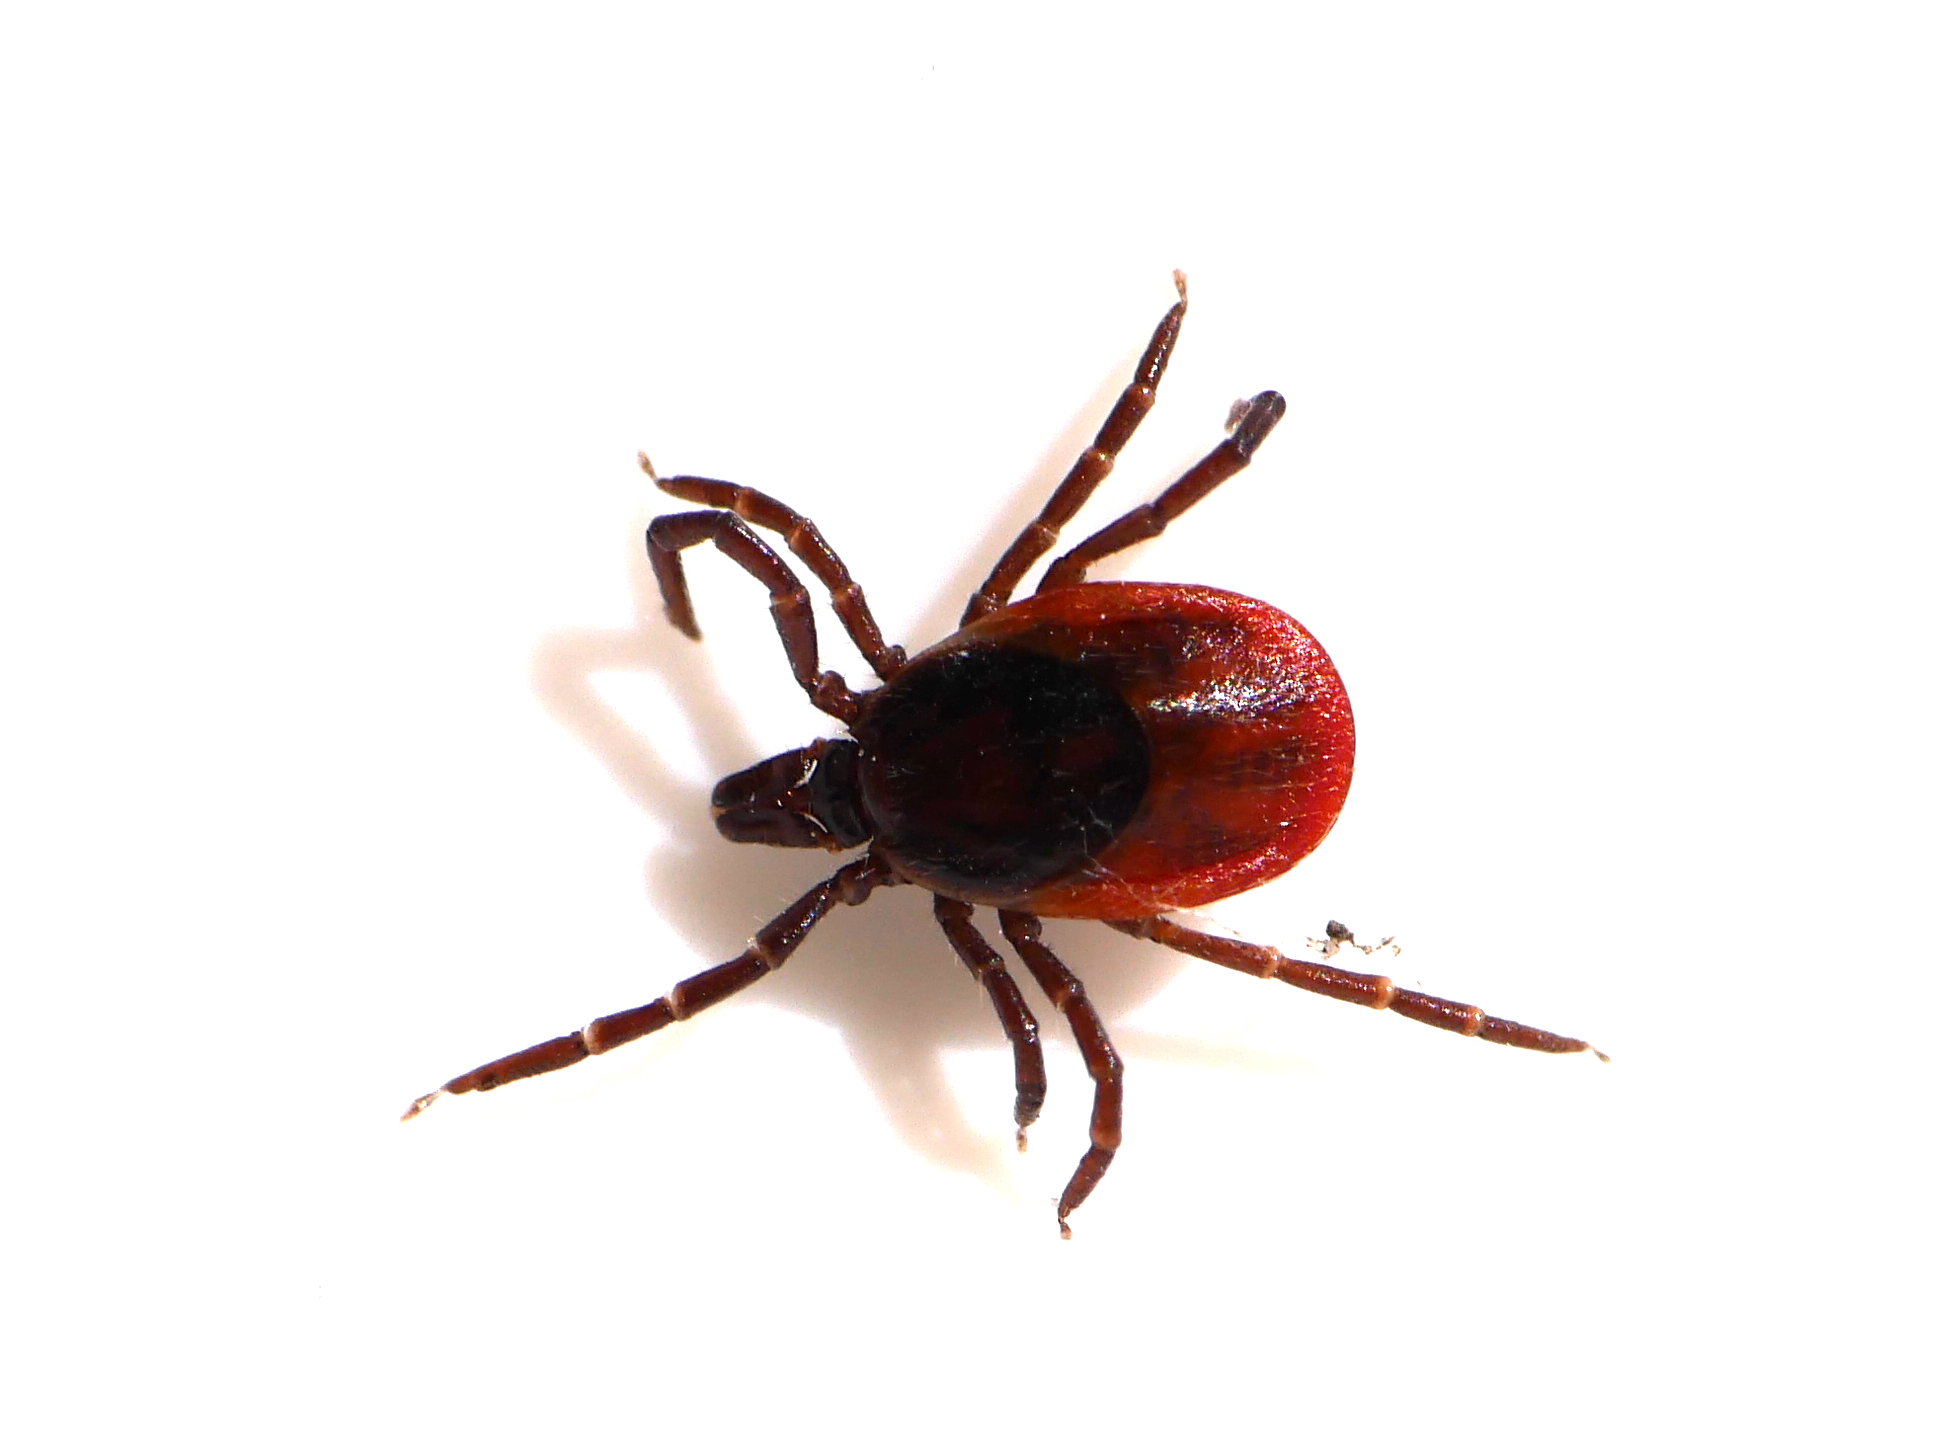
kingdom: Animalia
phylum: Arthropoda
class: Arachnida
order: Ixodida
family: Ixodidae
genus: Ixodes
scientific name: Ixodes ricinus
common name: Castor bean tick
